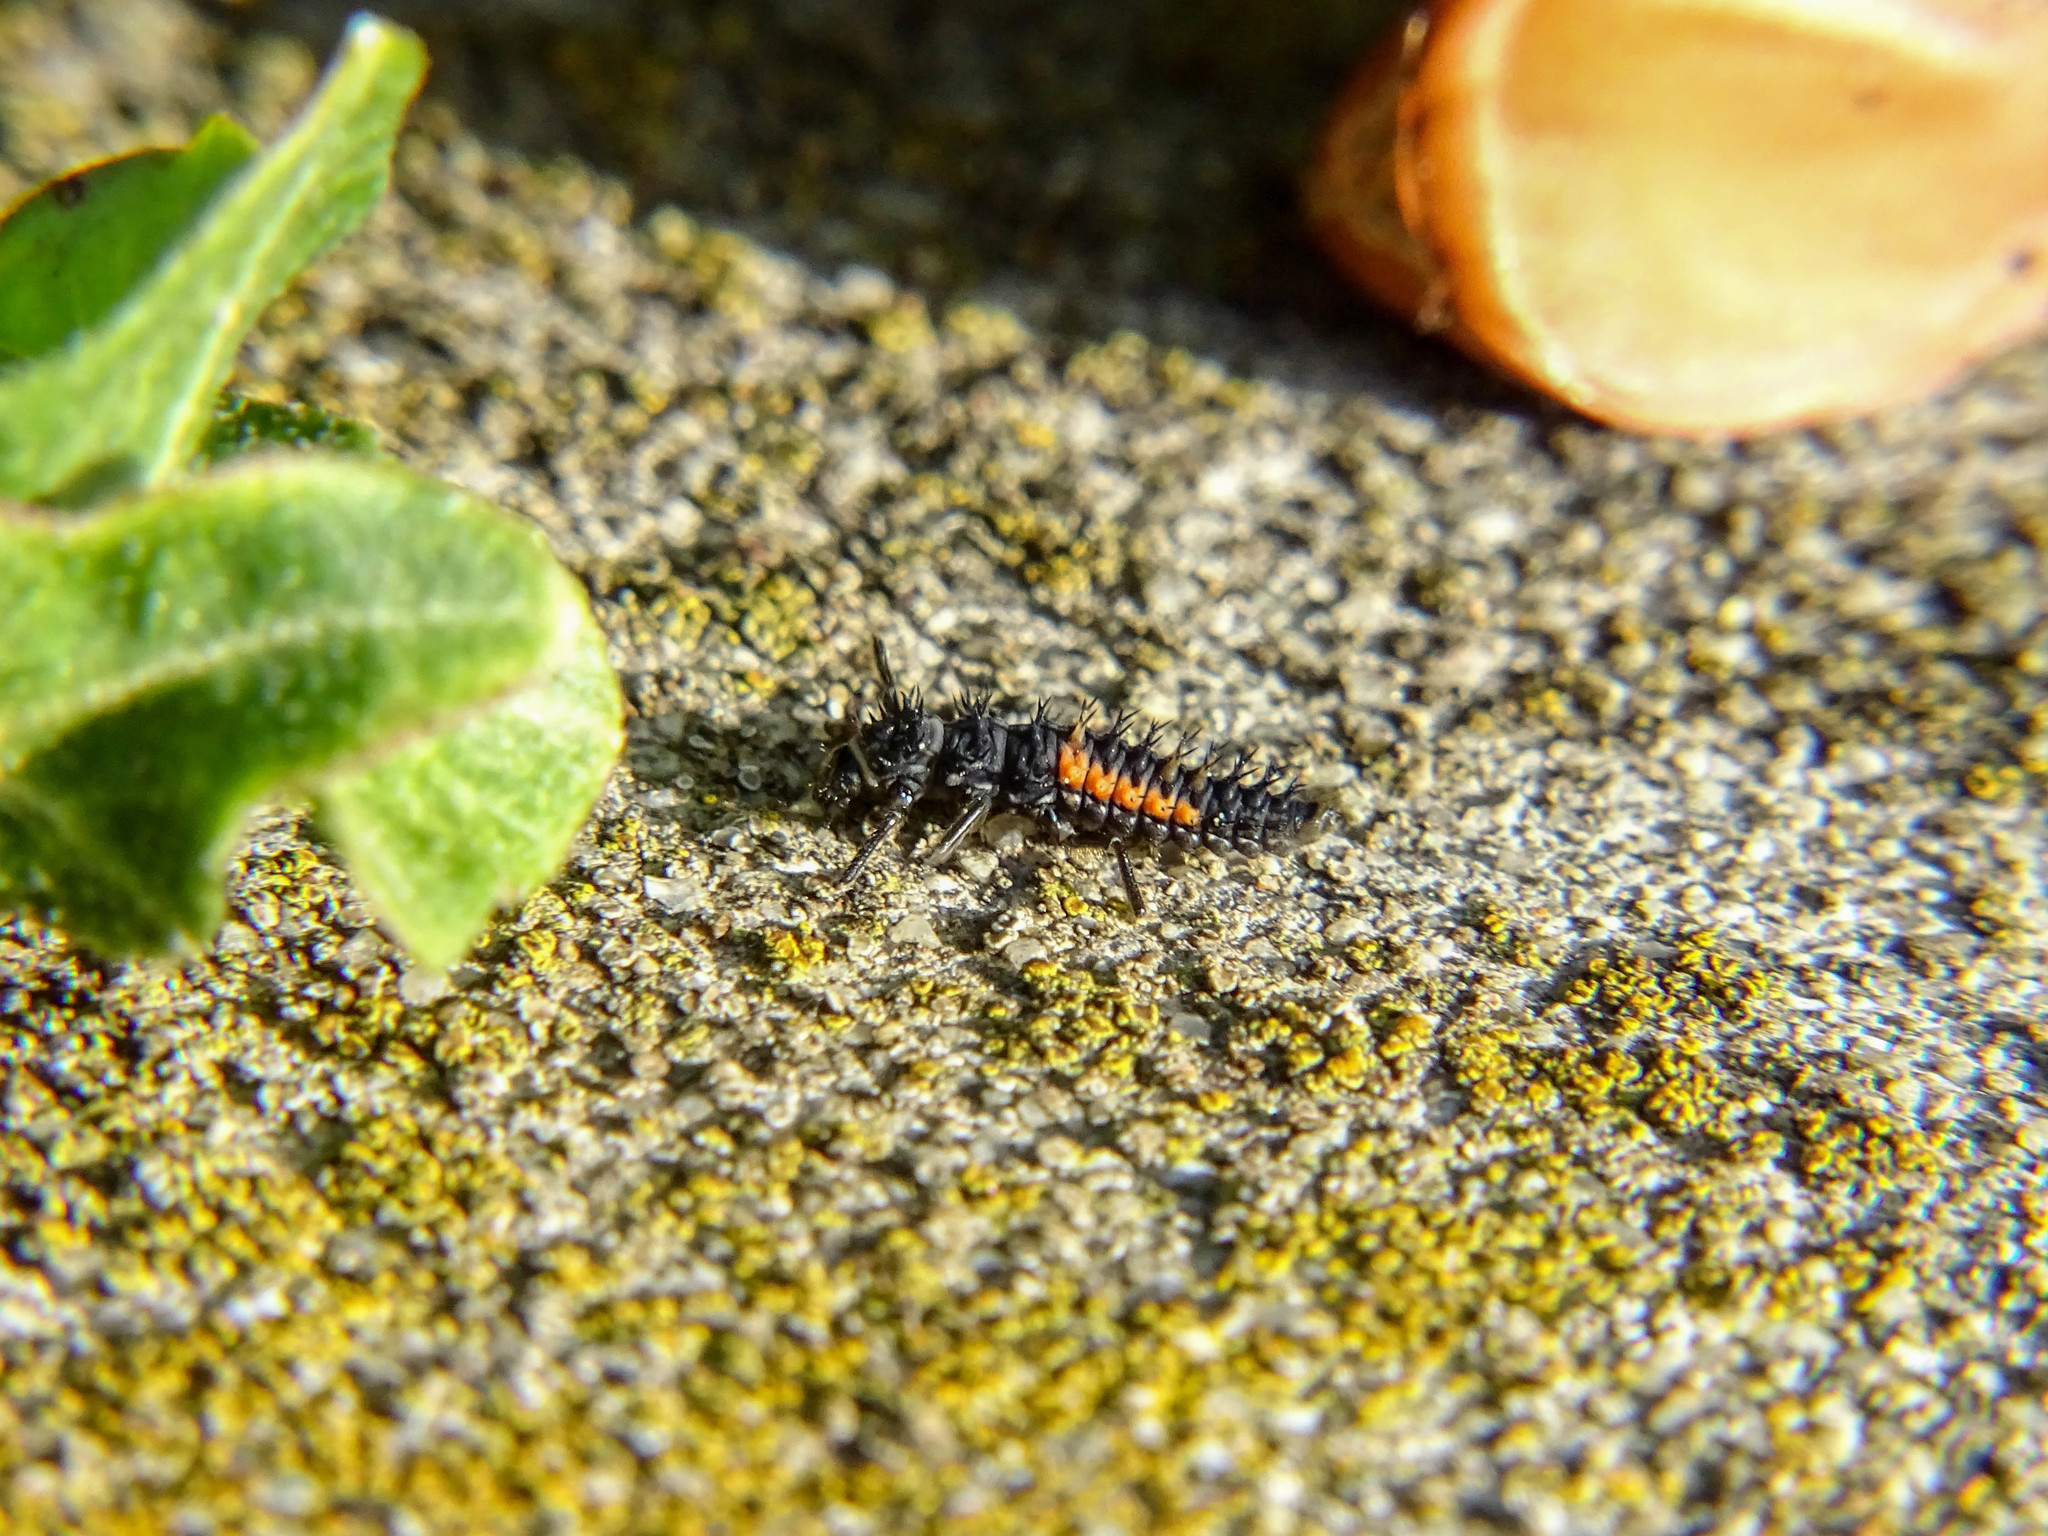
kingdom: Animalia
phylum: Arthropoda
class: Insecta
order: Coleoptera
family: Coccinellidae
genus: Harmonia
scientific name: Harmonia axyridis
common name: Harlequin ladybird
